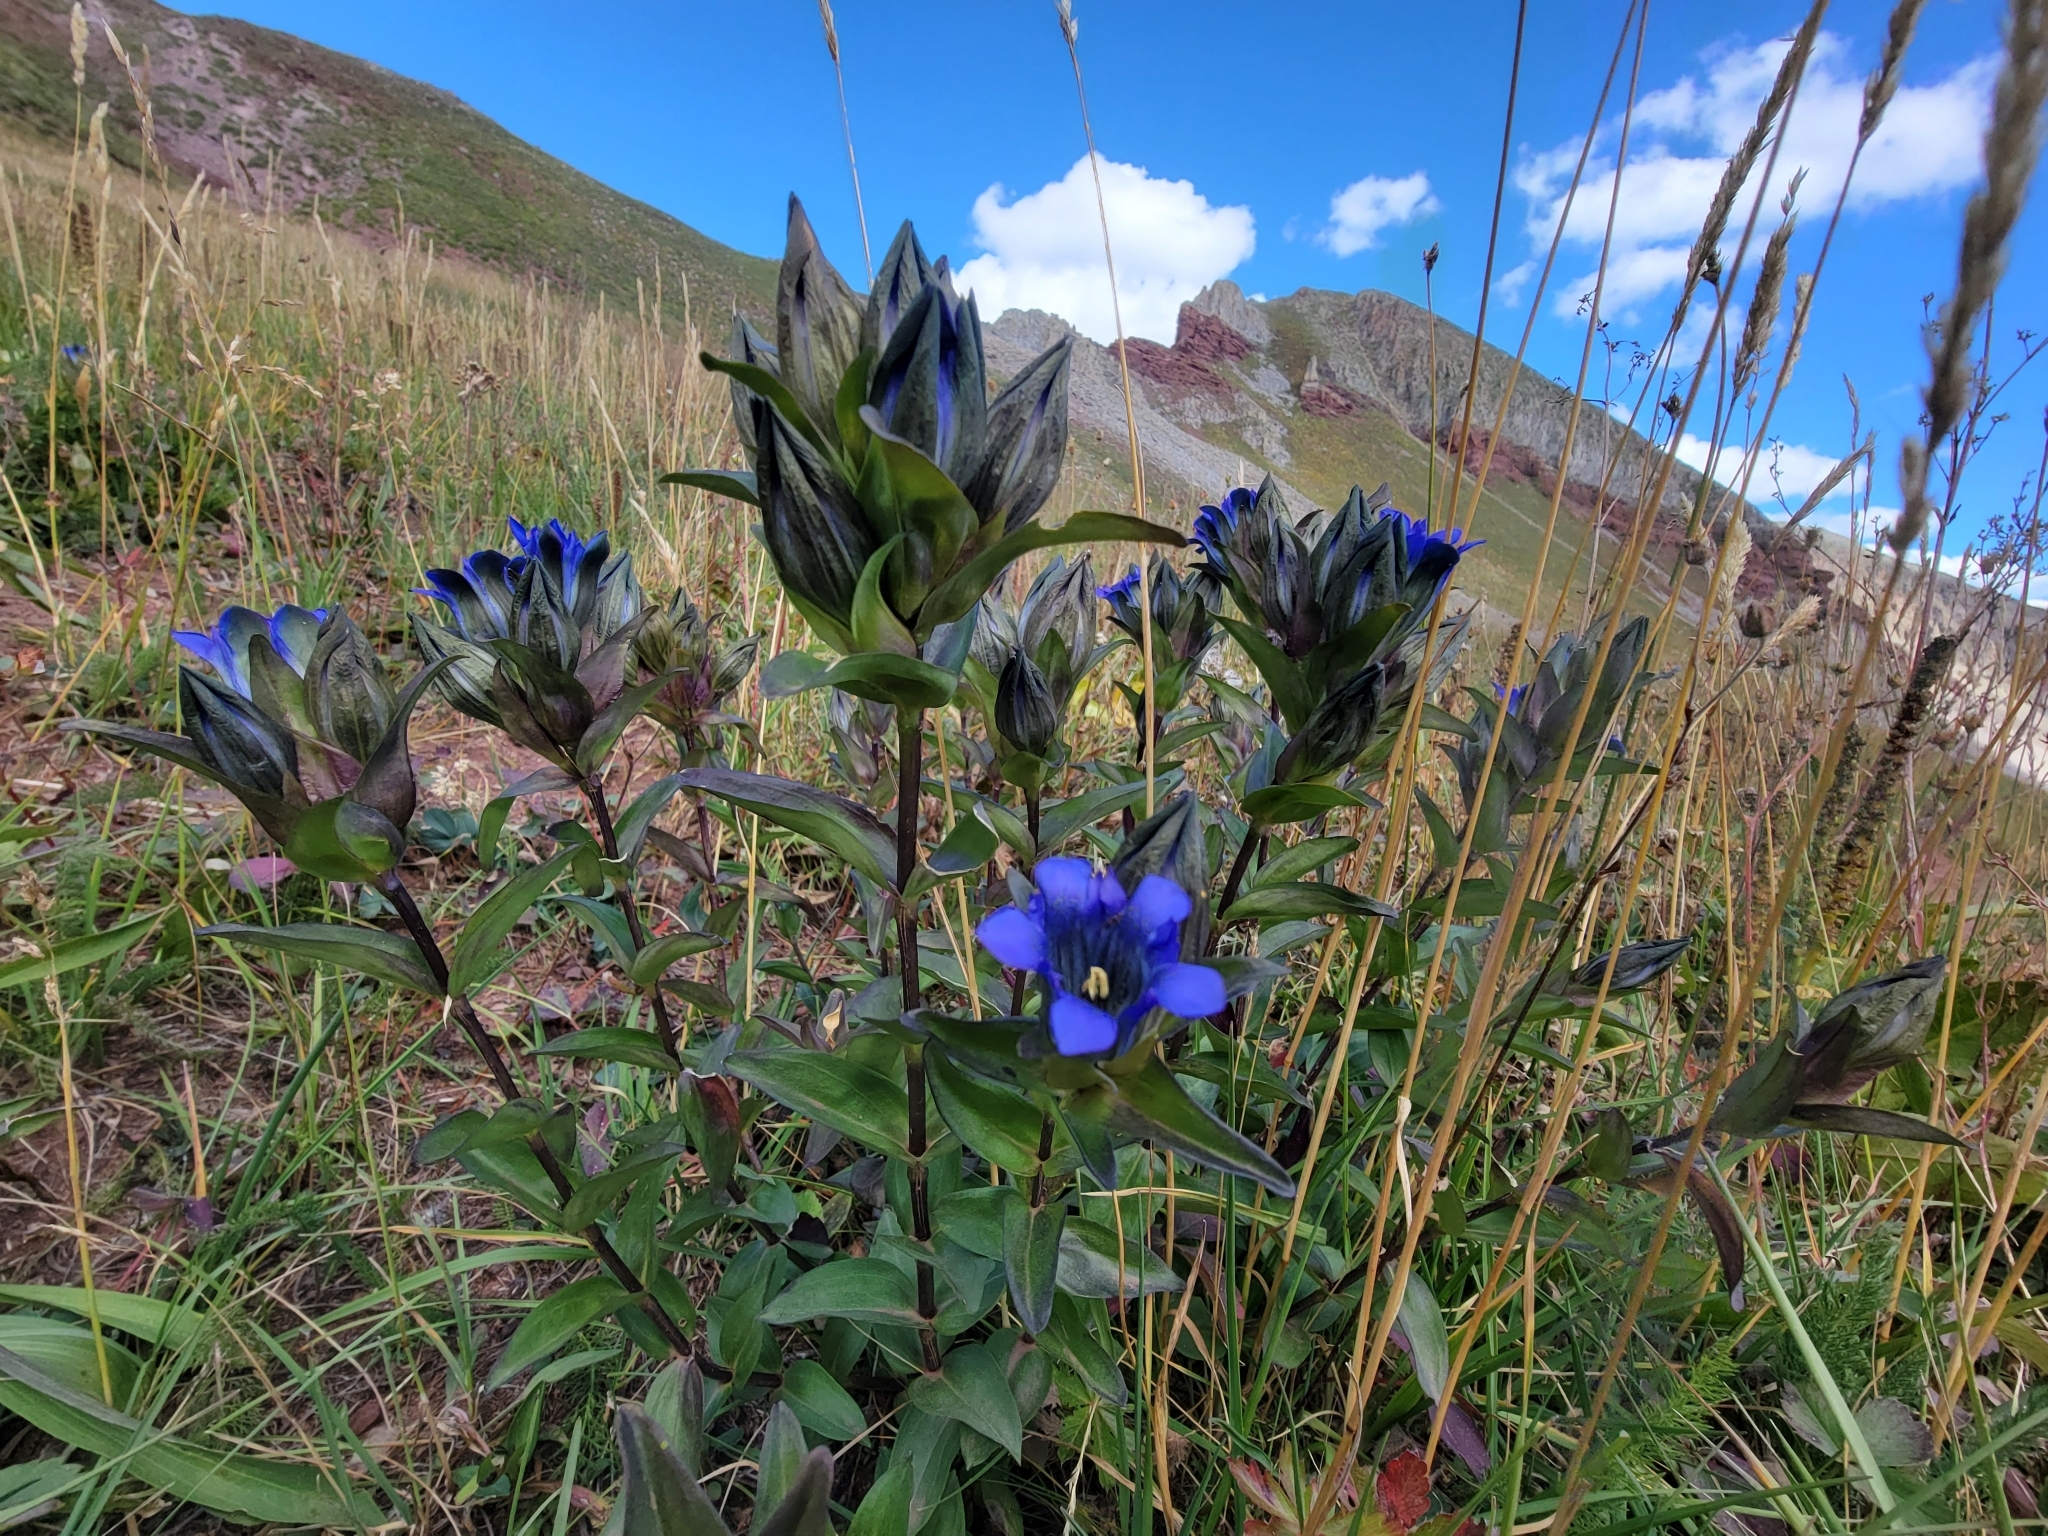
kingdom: Plantae
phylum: Tracheophyta
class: Magnoliopsida
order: Gentianales
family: Gentianaceae
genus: Gentiana
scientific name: Gentiana parryi
